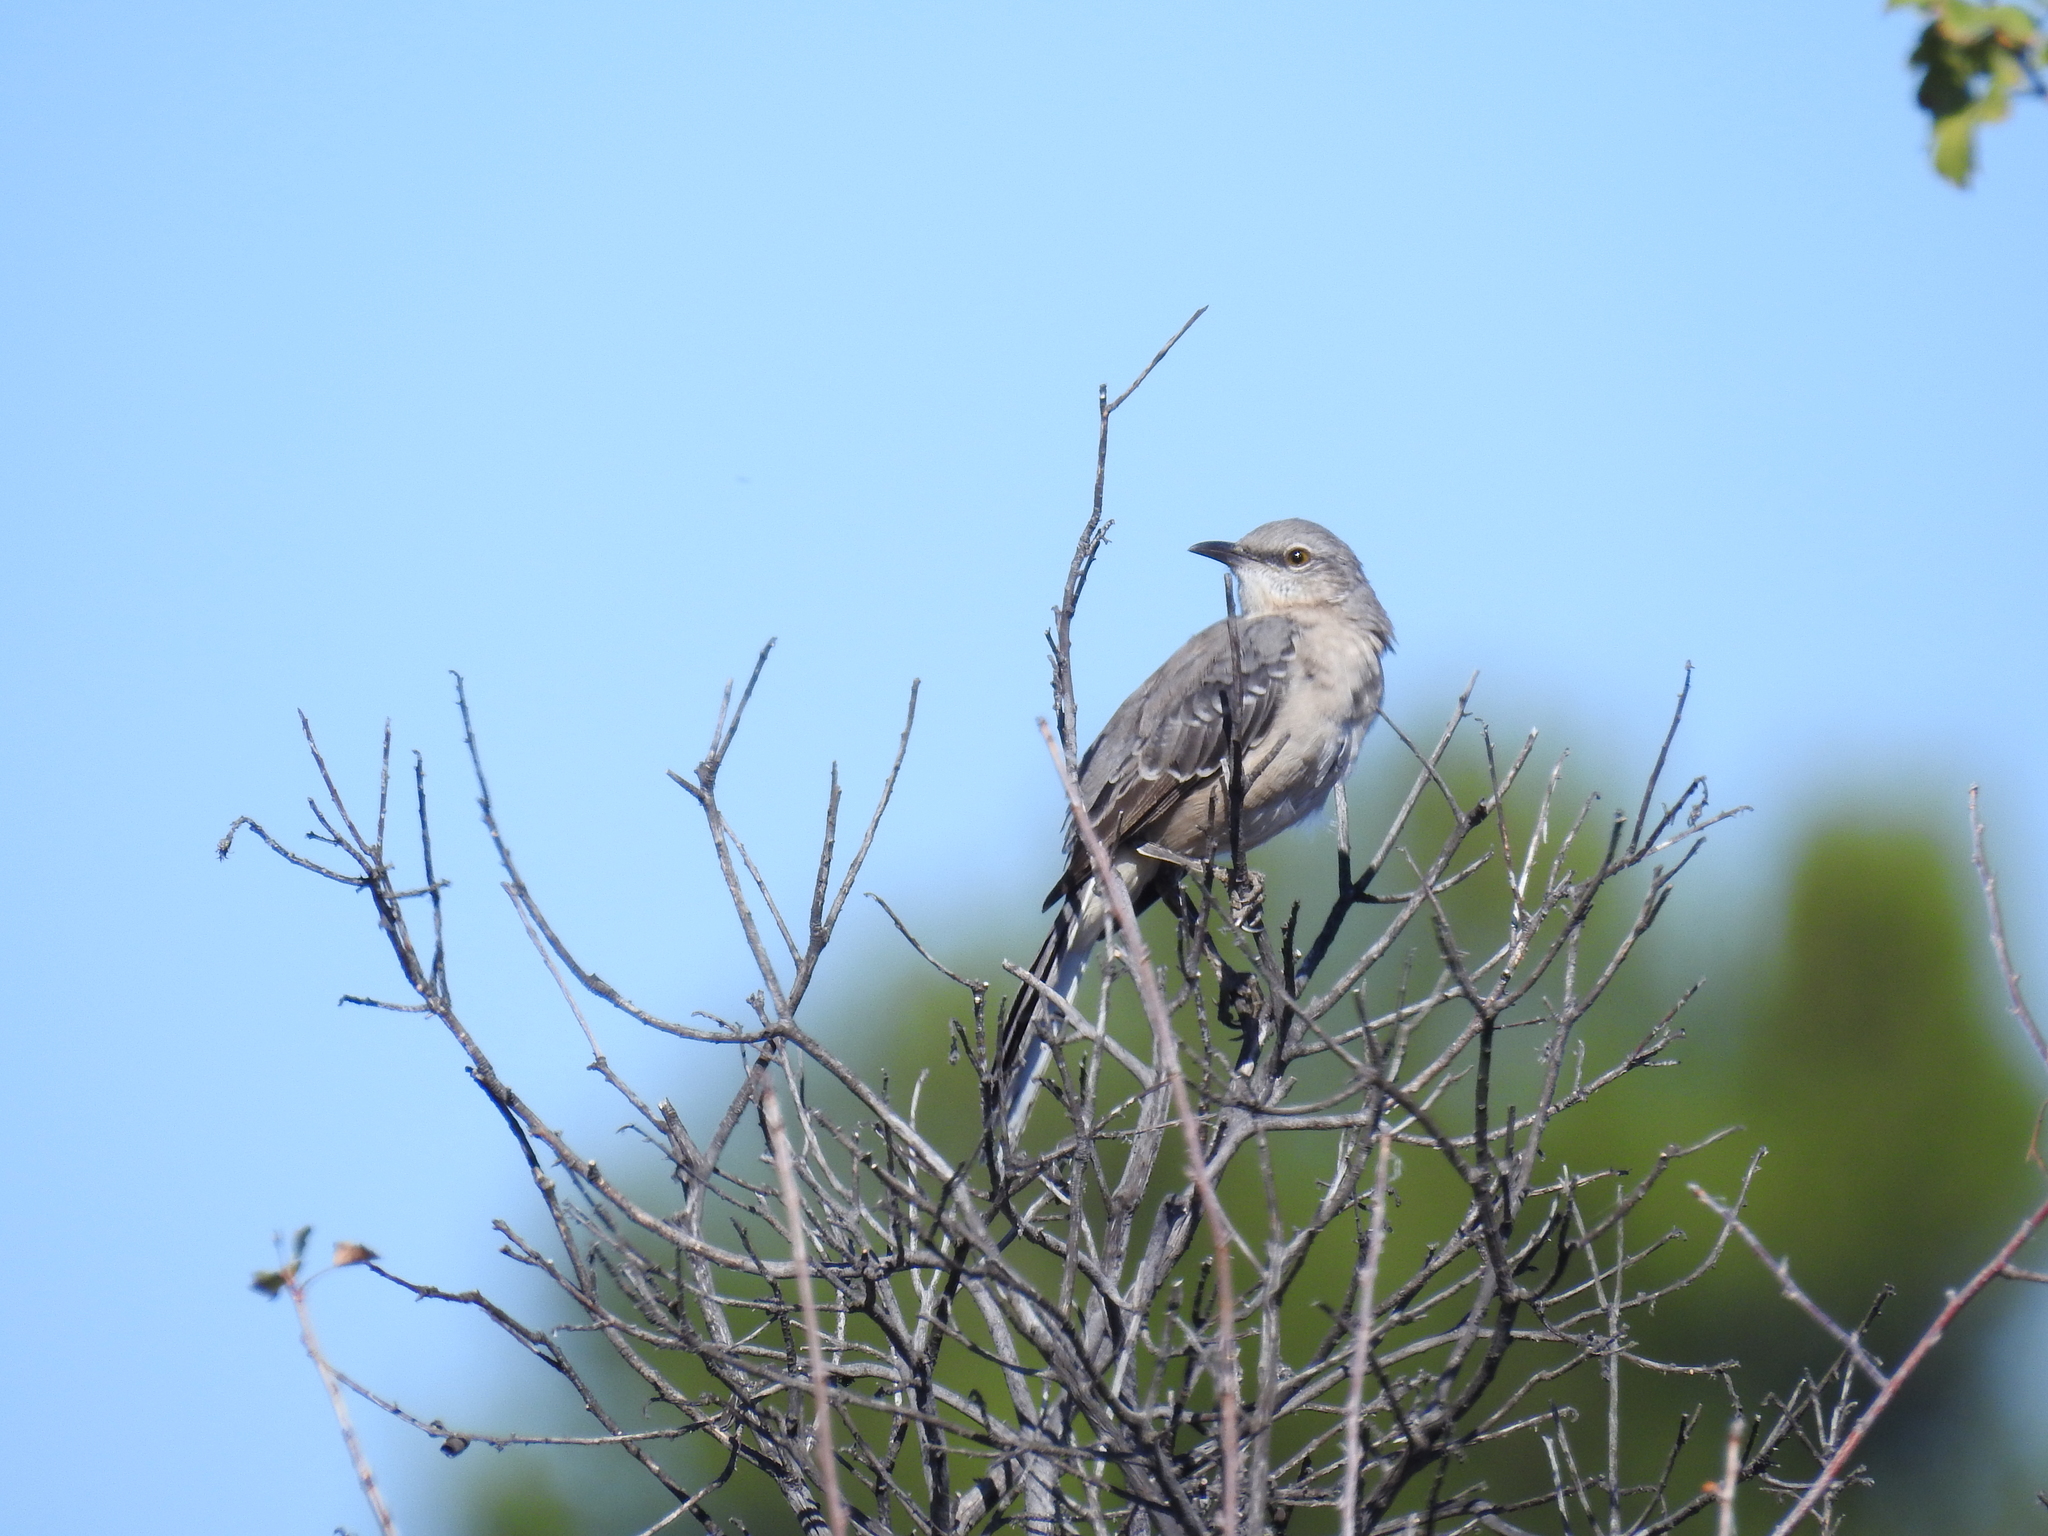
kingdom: Animalia
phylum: Chordata
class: Aves
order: Passeriformes
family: Mimidae
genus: Mimus
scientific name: Mimus polyglottos
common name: Northern mockingbird
